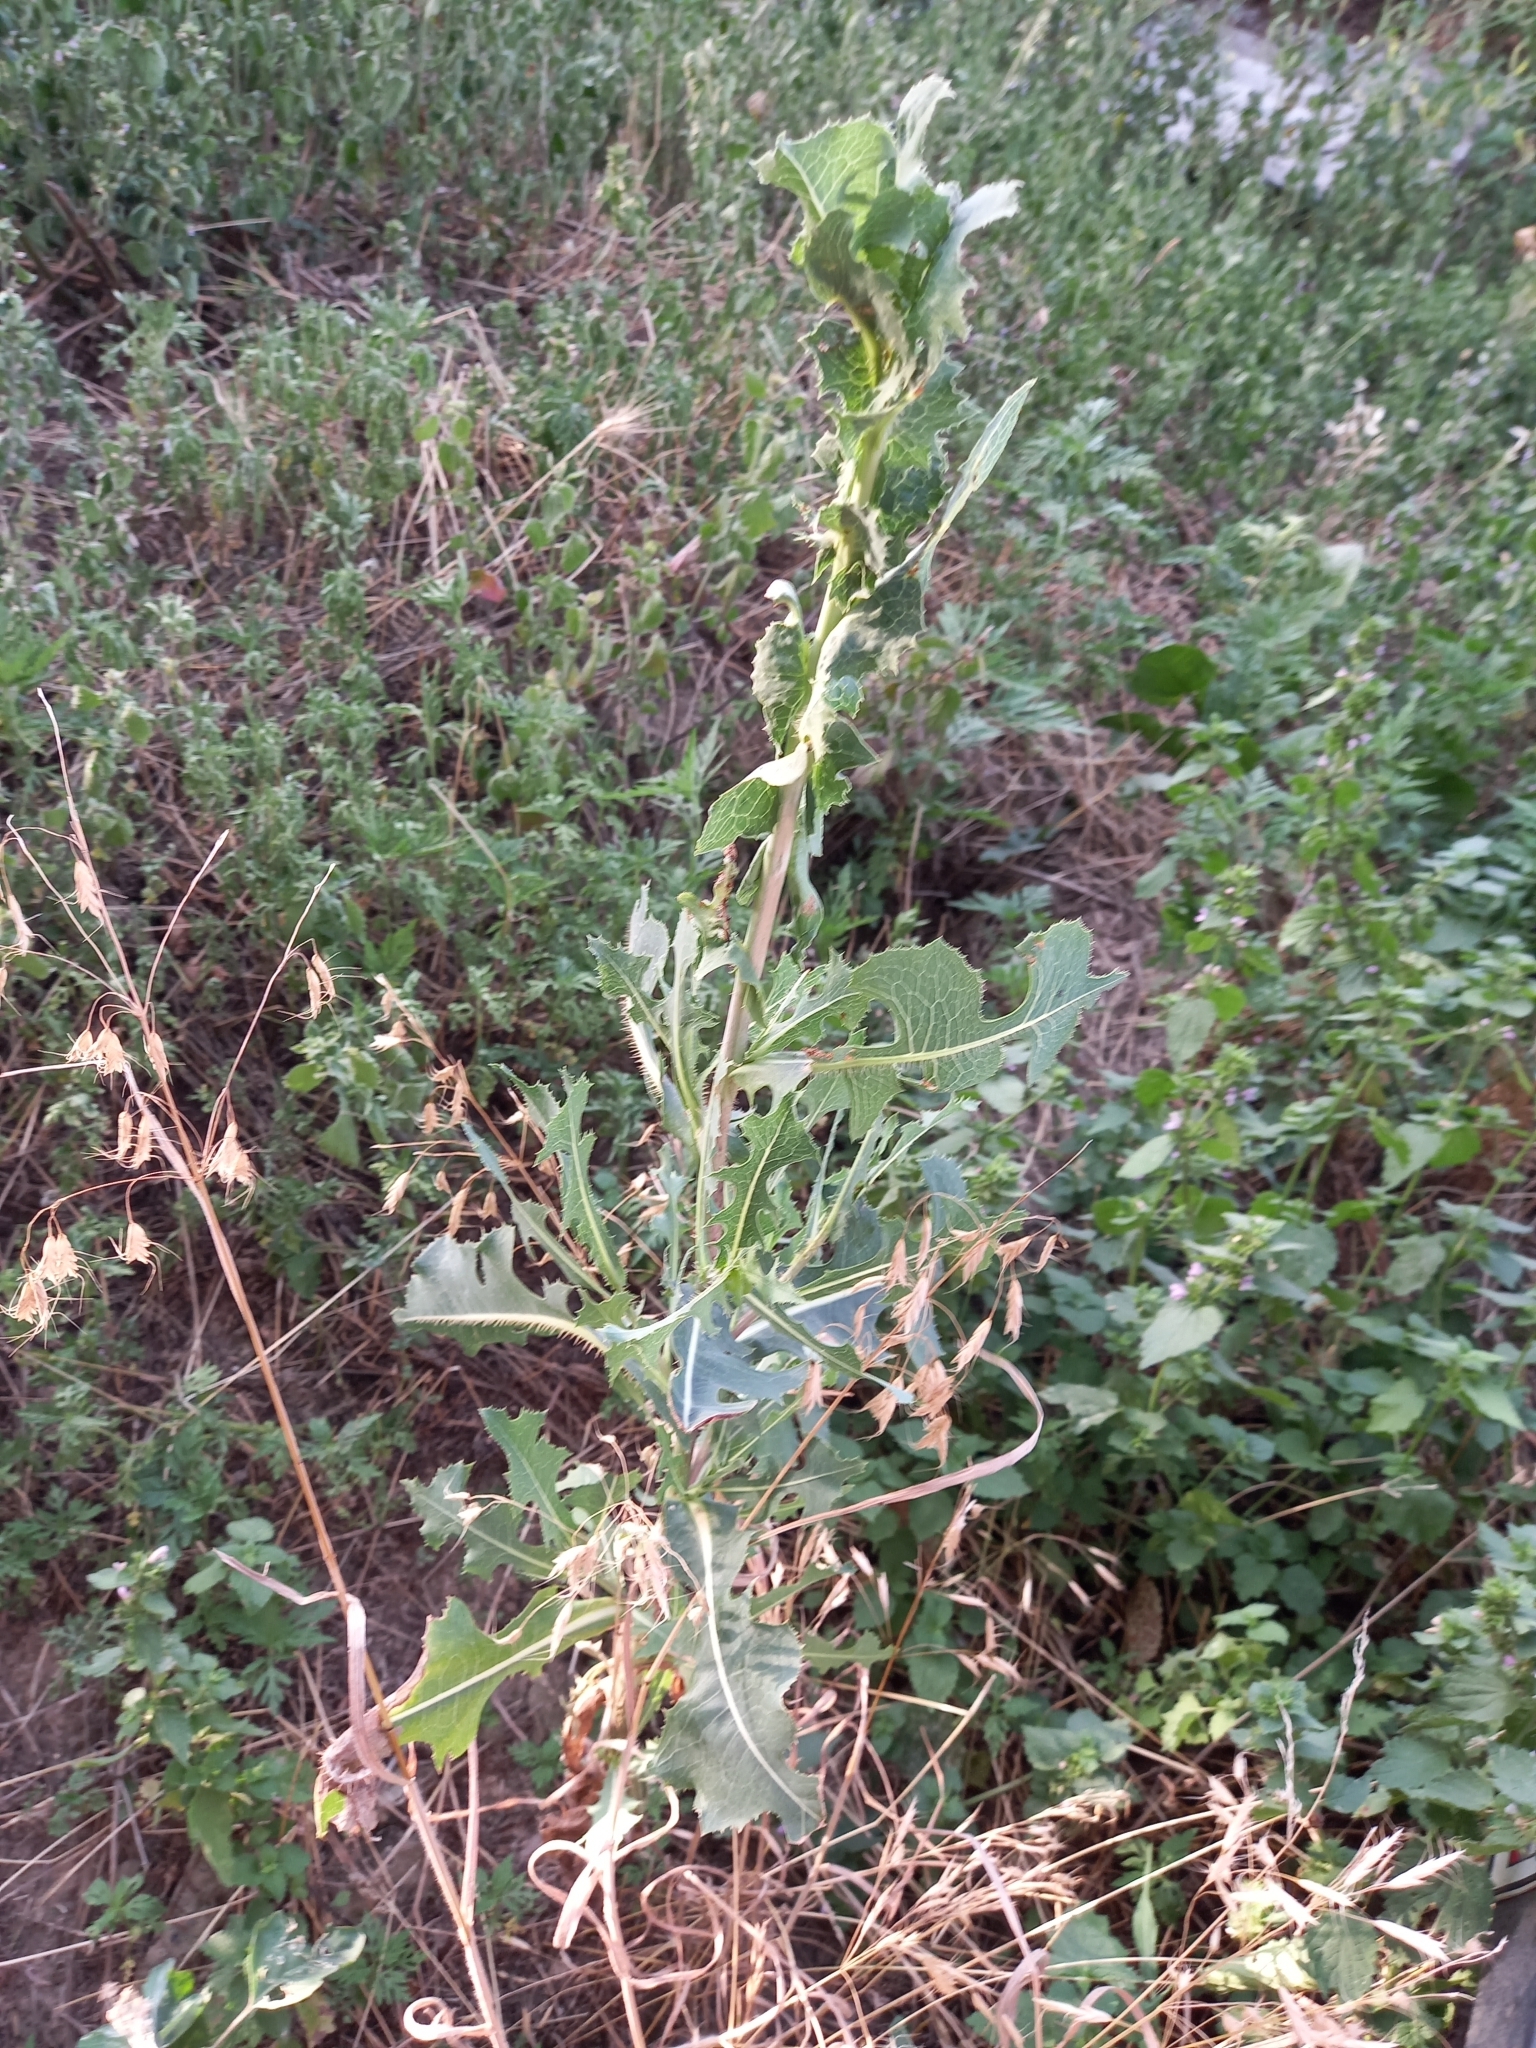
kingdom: Plantae
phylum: Tracheophyta
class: Magnoliopsida
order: Asterales
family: Asteraceae
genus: Lactuca
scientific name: Lactuca serriola
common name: Prickly lettuce
